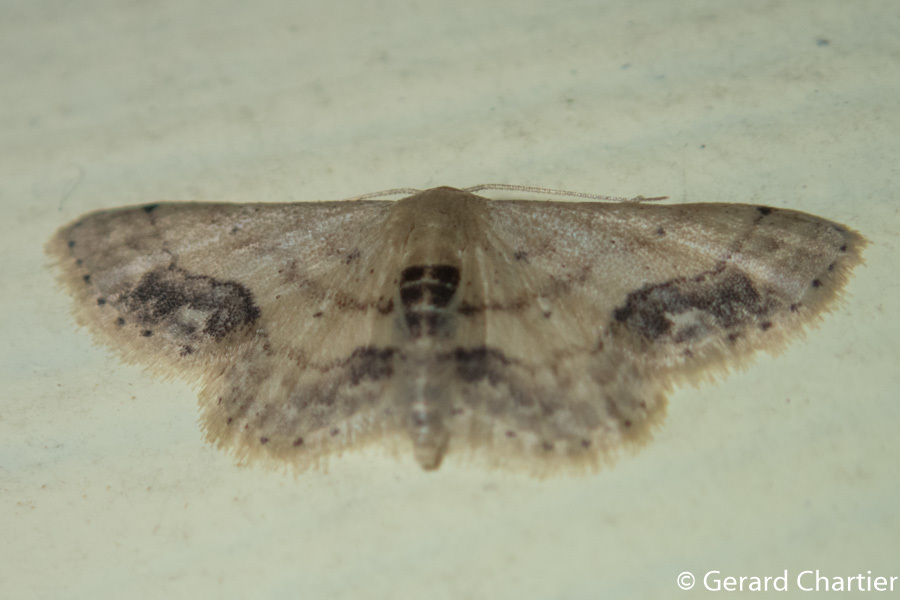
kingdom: Animalia
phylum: Arthropoda
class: Insecta
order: Lepidoptera
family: Geometridae
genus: Idaea
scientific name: Idaea chotaria
